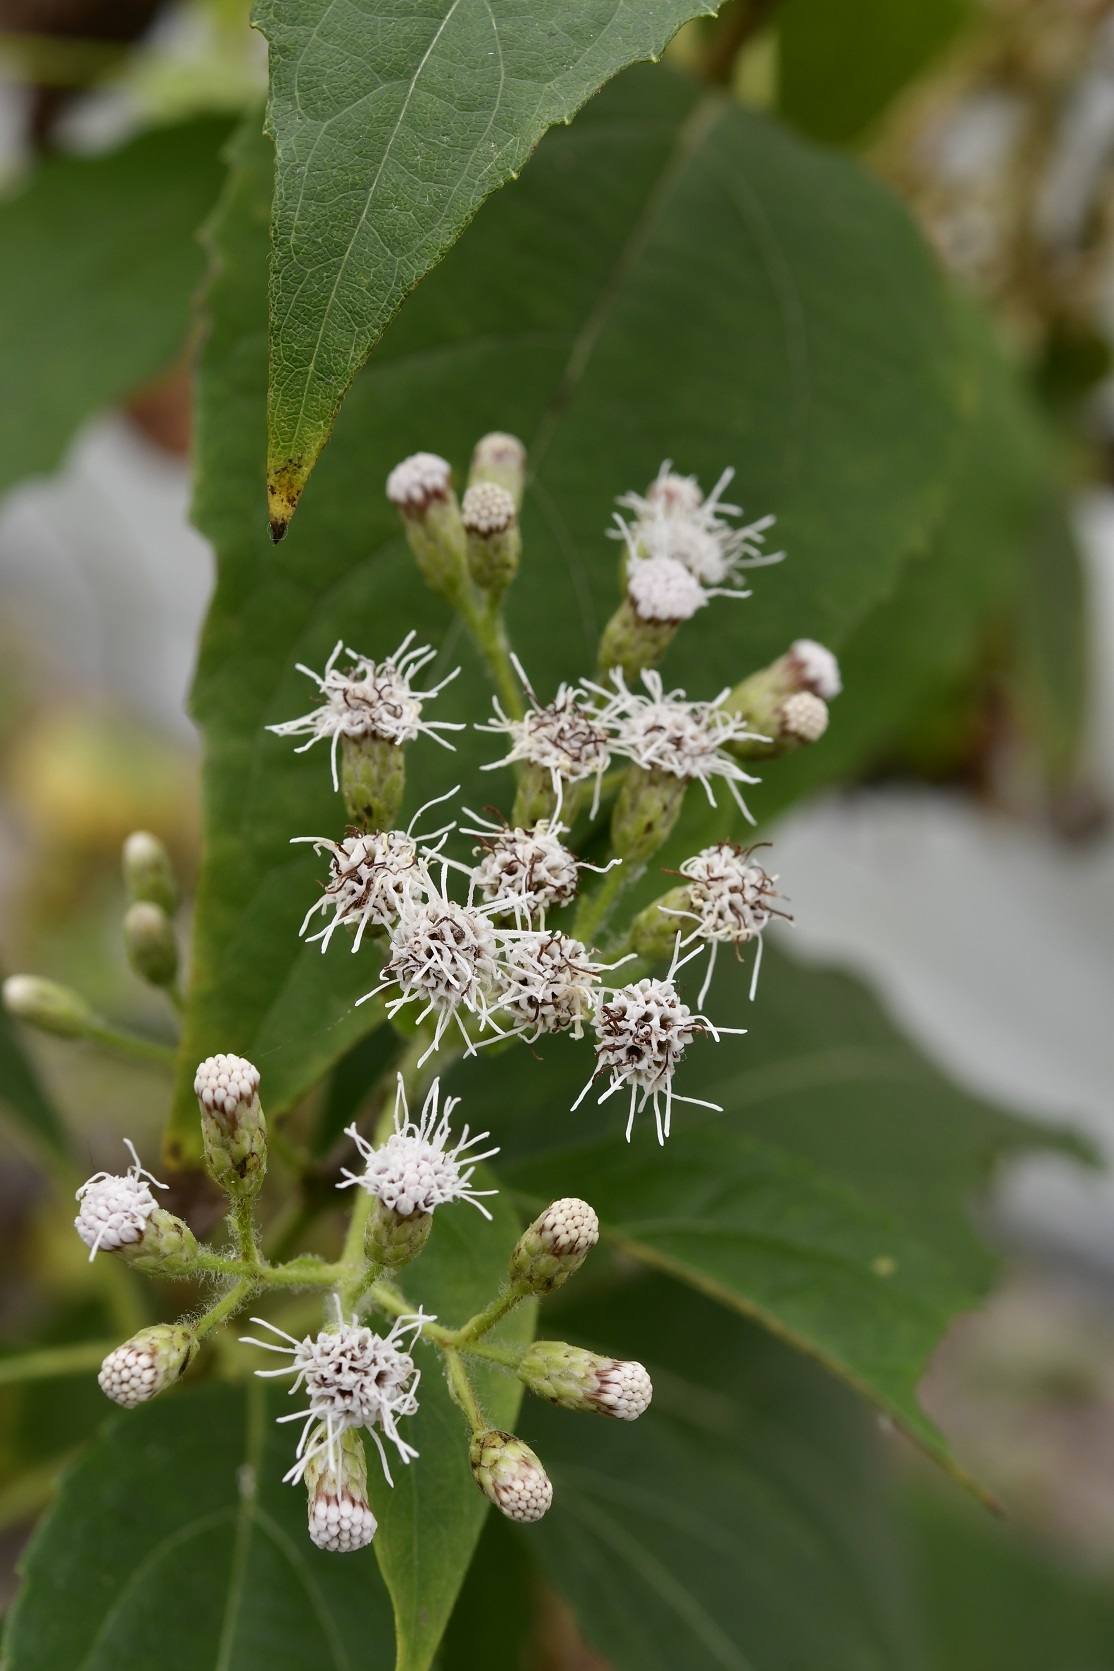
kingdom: Plantae
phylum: Tracheophyta
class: Magnoliopsida
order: Asterales
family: Asteraceae
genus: Chromolaena
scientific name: Chromolaena glaberrima
